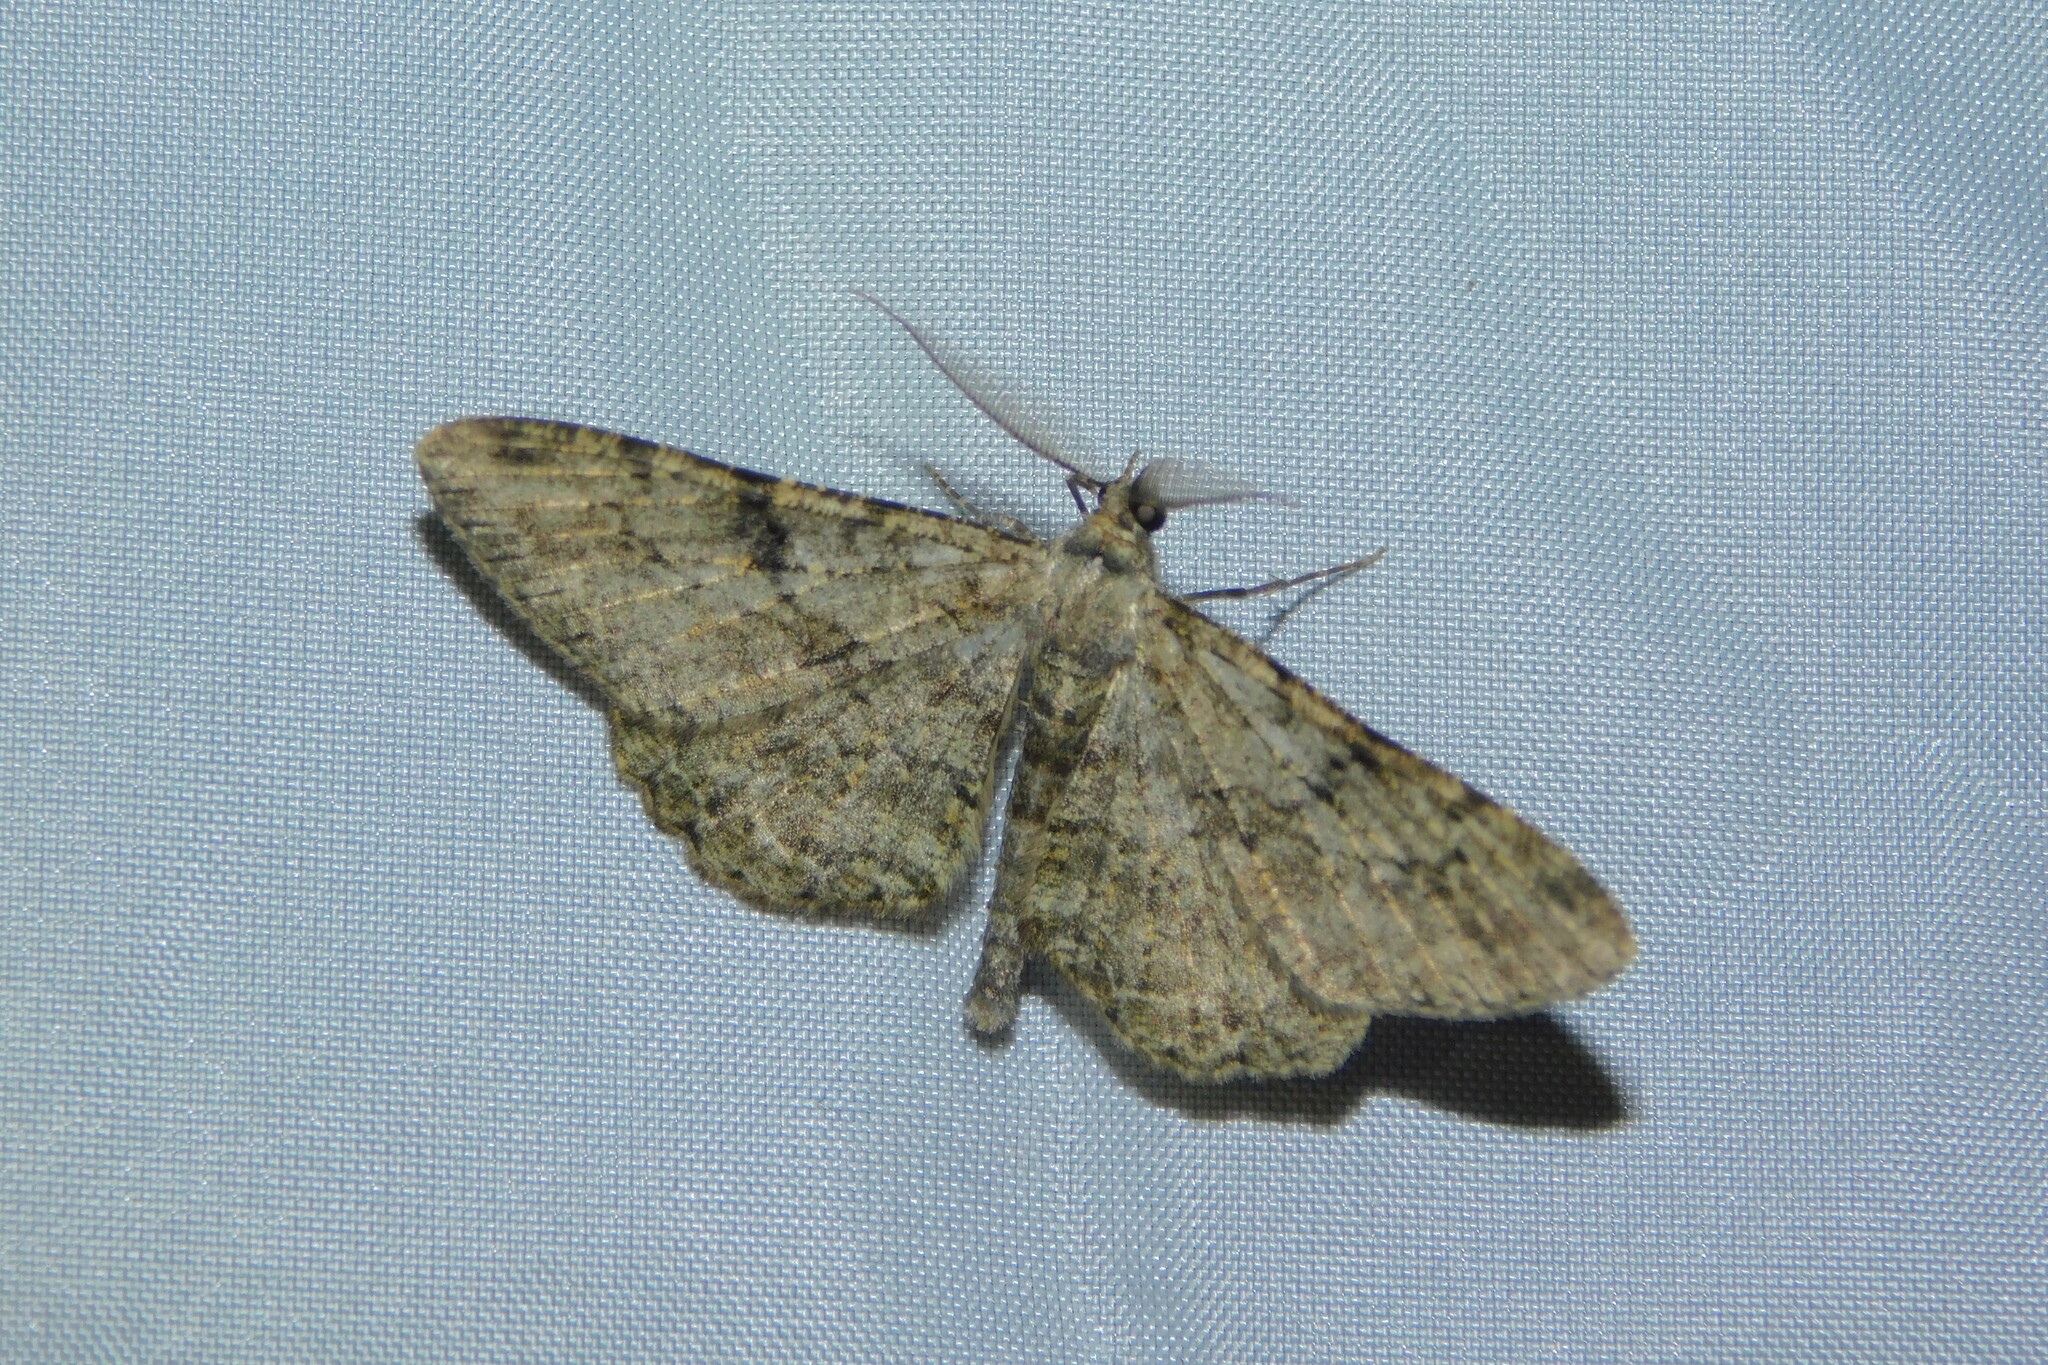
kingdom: Animalia
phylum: Arthropoda
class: Insecta
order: Lepidoptera
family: Geometridae
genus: Peribatodes
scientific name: Peribatodes rhomboidaria
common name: Willow beauty
